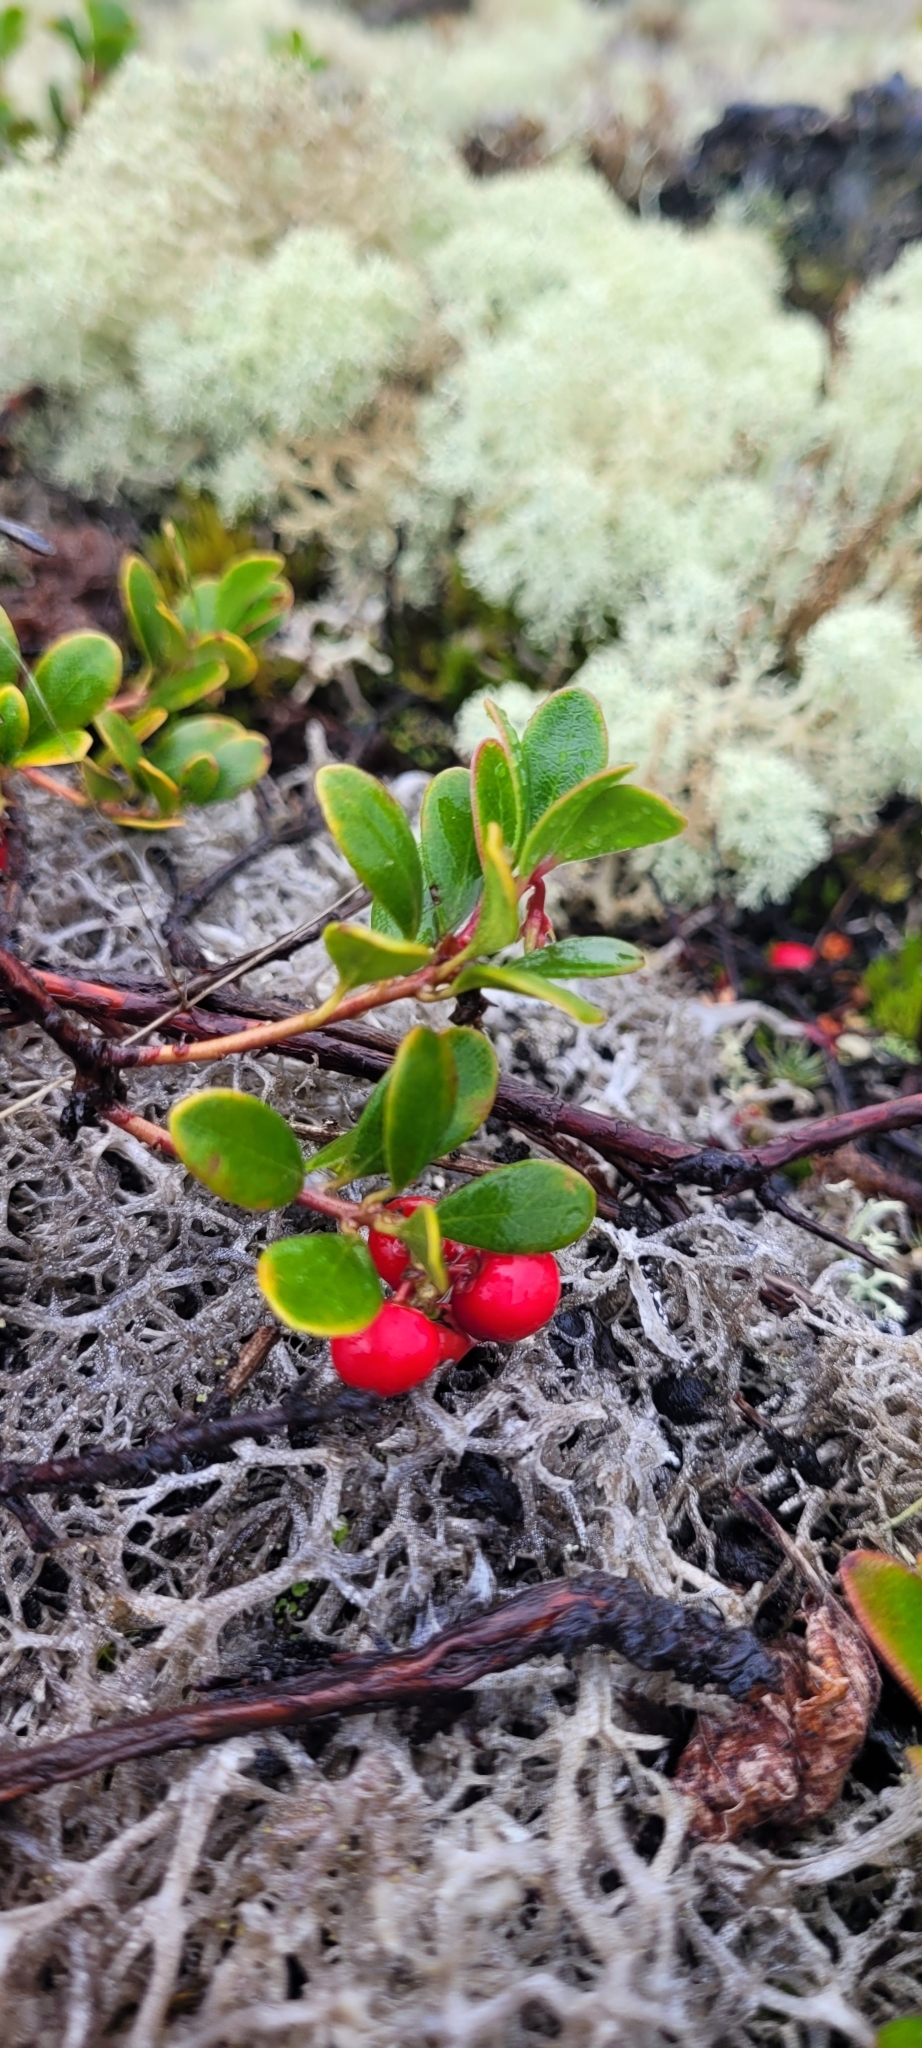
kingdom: Plantae
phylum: Tracheophyta
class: Magnoliopsida
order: Ericales
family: Ericaceae
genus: Arctostaphylos
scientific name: Arctostaphylos uva-ursi
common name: Bearberry
